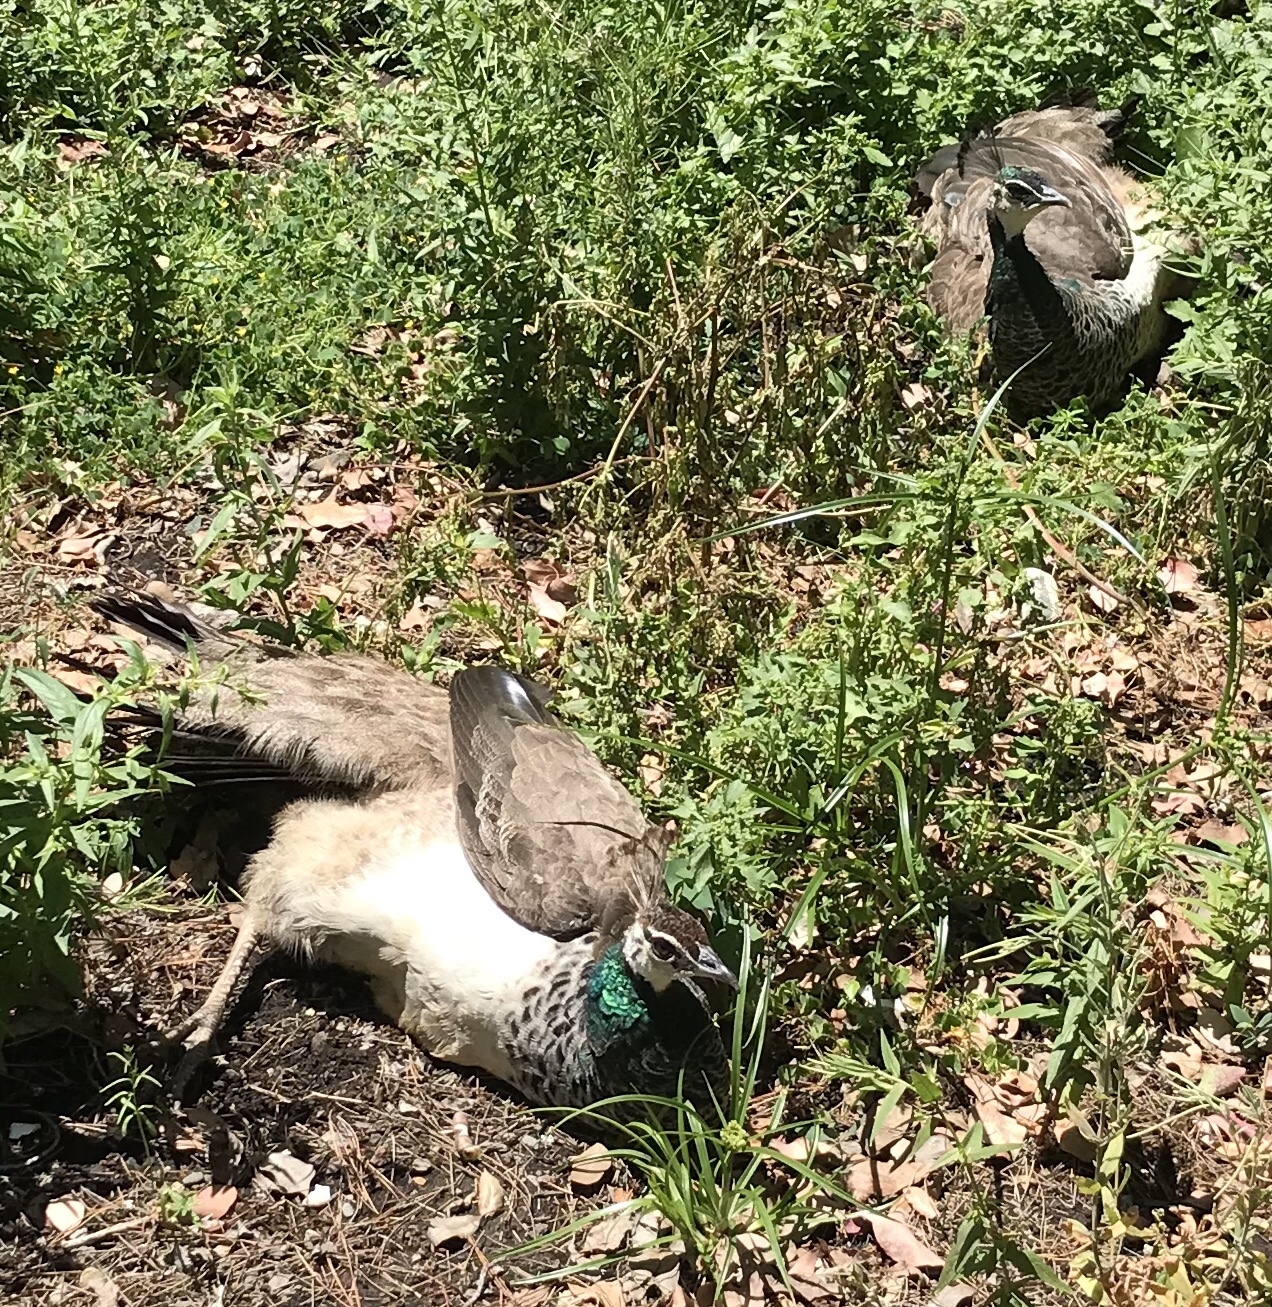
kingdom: Animalia
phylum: Chordata
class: Aves
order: Galliformes
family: Phasianidae
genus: Pavo
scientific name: Pavo cristatus
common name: Indian peafowl
